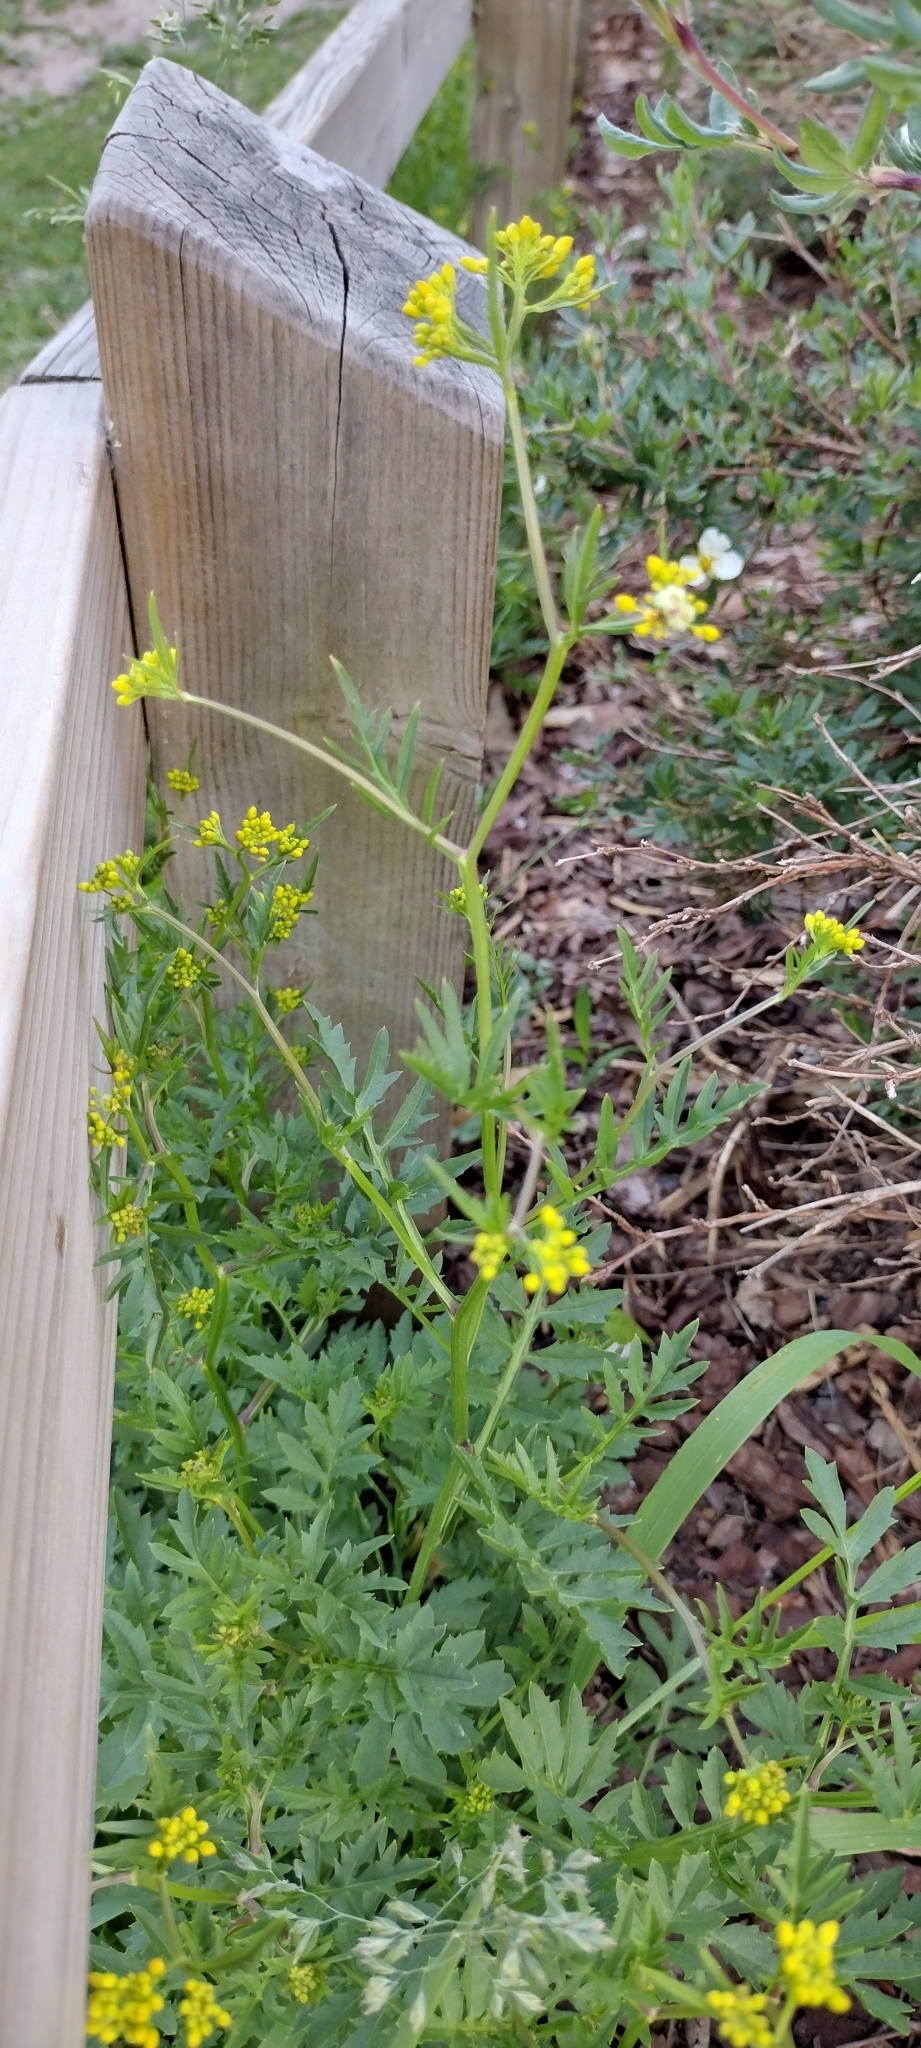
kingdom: Plantae
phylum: Tracheophyta
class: Magnoliopsida
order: Brassicales
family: Brassicaceae
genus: Rorippa
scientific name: Rorippa sylvestris
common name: Creeping yellowcress
